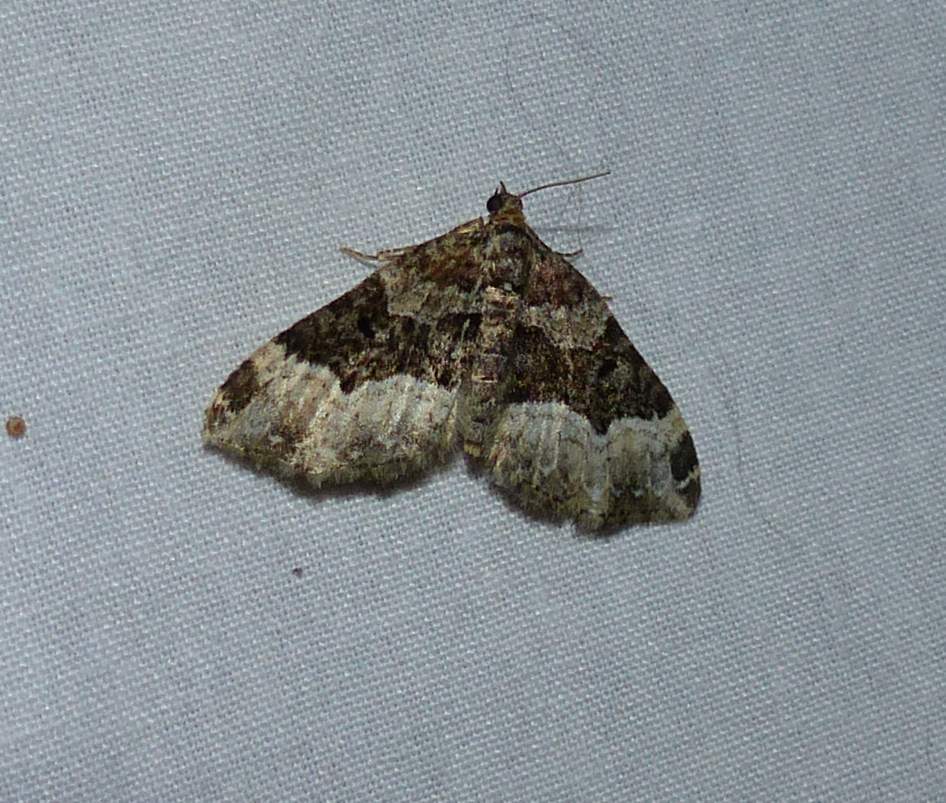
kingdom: Animalia
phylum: Arthropoda
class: Insecta
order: Lepidoptera
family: Geometridae
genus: Xanthorhoe
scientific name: Xanthorhoe lacustrata
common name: Toothed brown carpet
